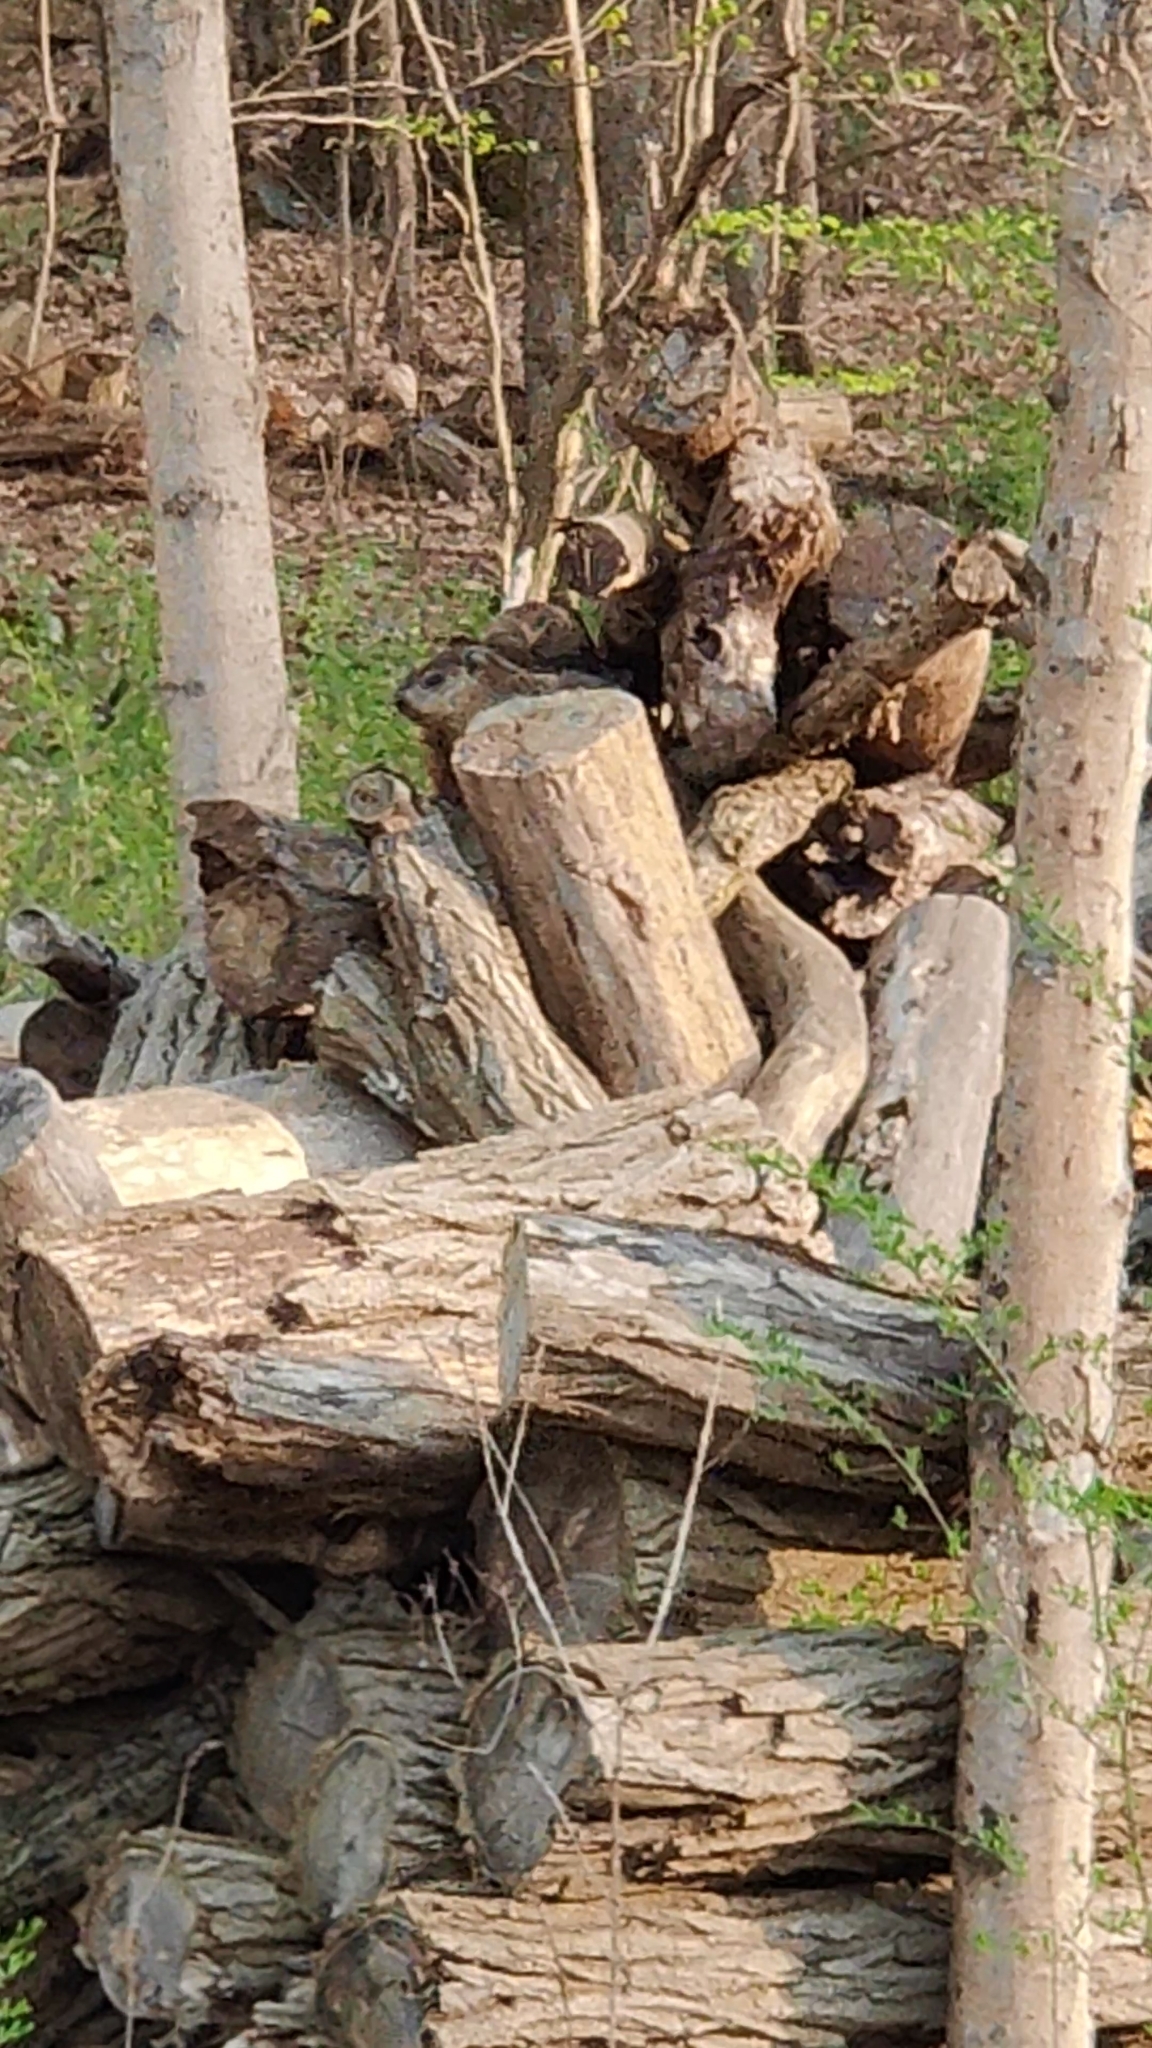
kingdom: Animalia
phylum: Chordata
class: Mammalia
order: Rodentia
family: Sciuridae
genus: Marmota
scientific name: Marmota monax
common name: Groundhog
